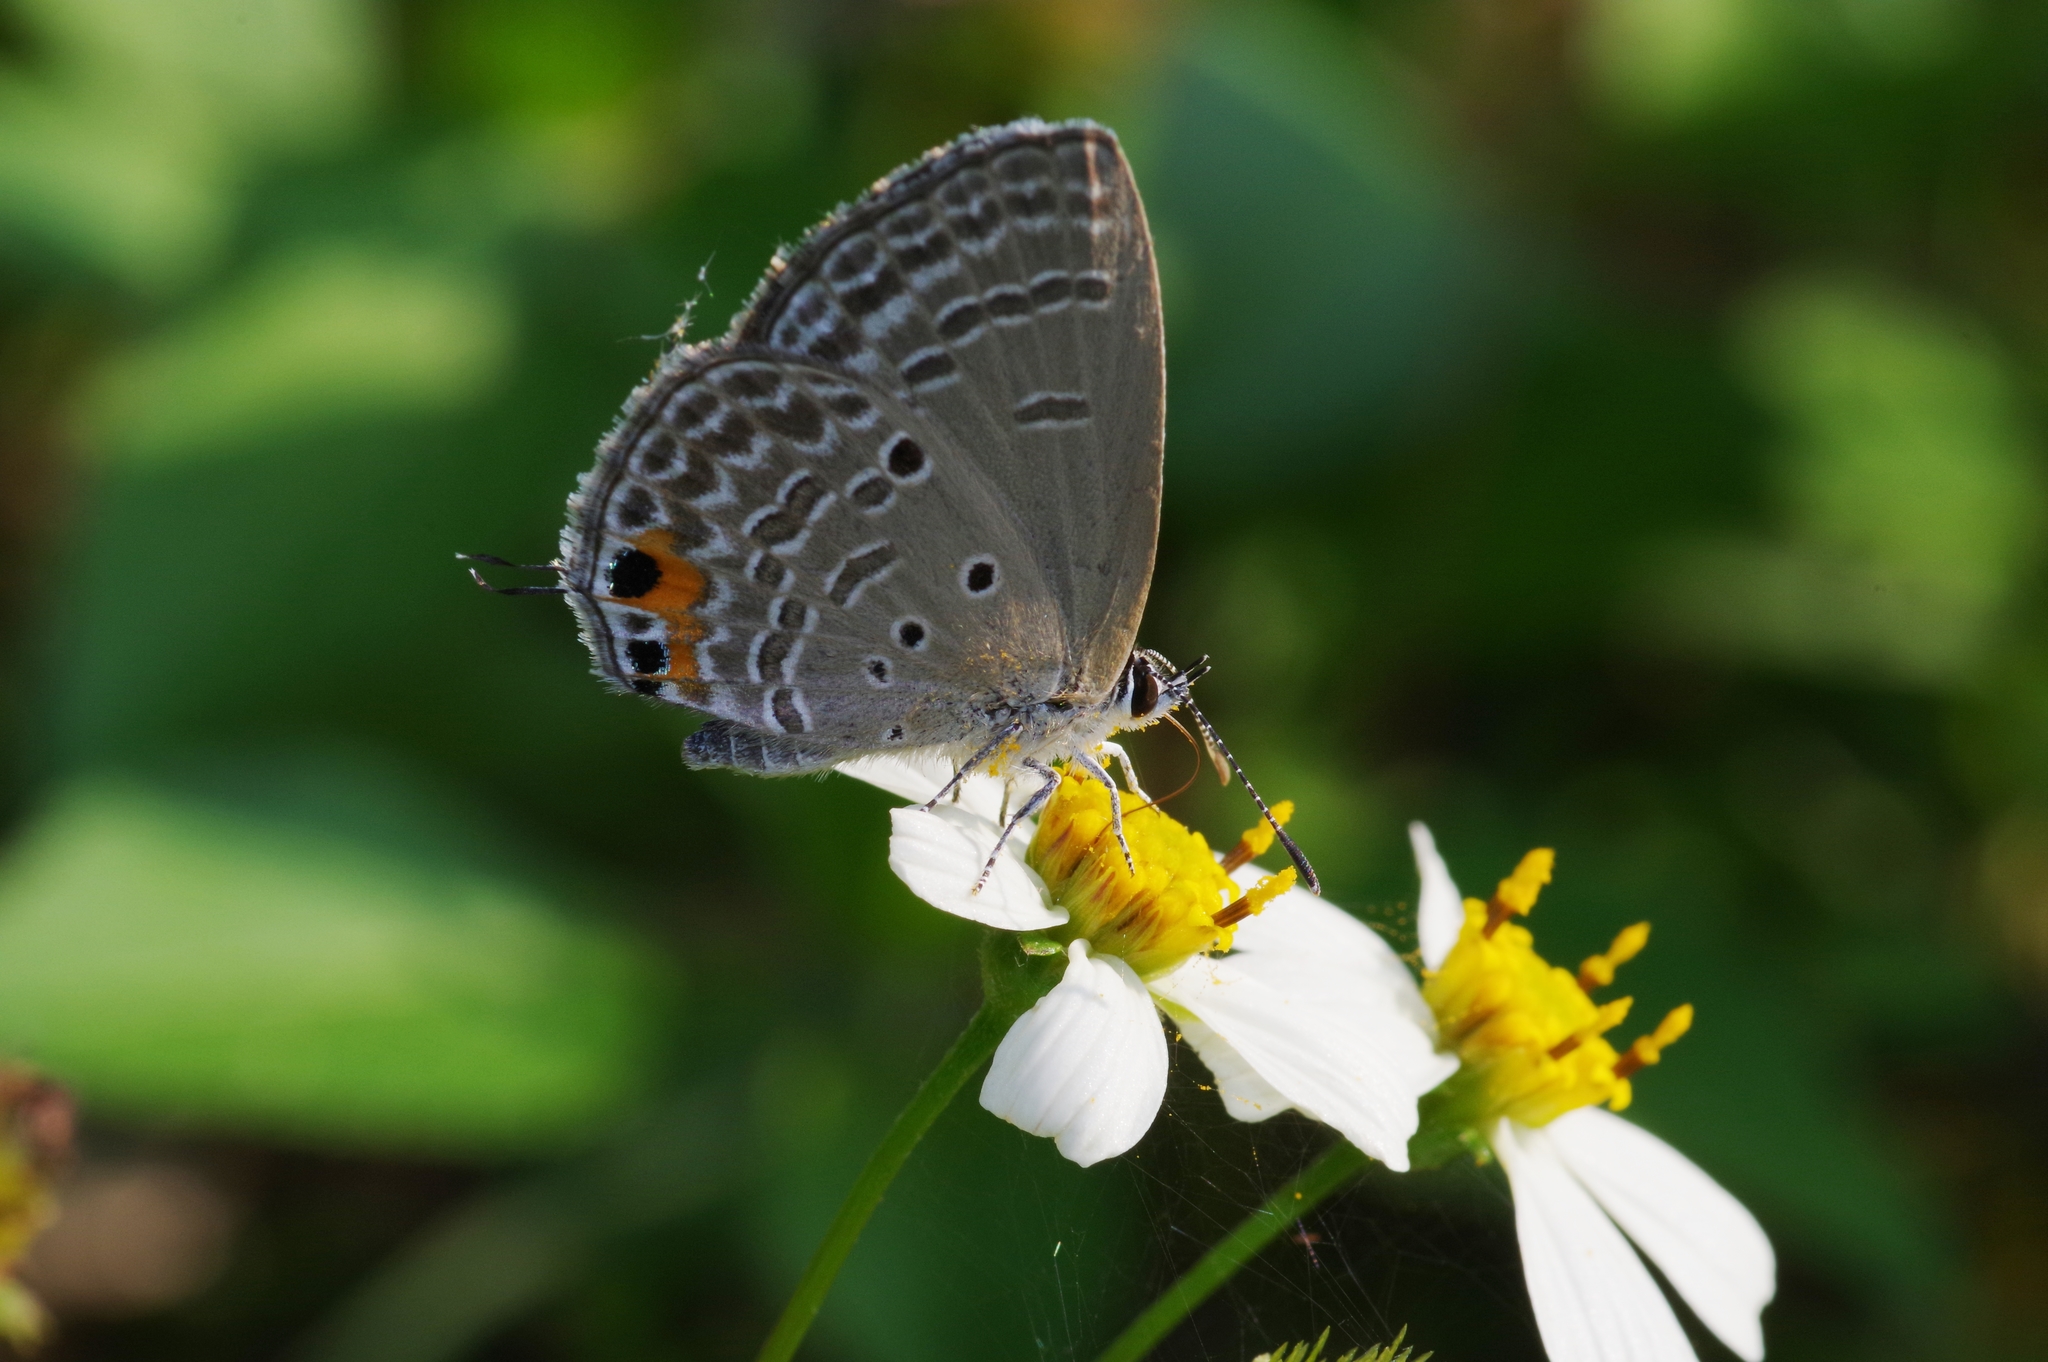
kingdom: Animalia
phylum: Arthropoda
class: Insecta
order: Lepidoptera
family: Lycaenidae
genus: Luthrodes
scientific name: Luthrodes pandava
